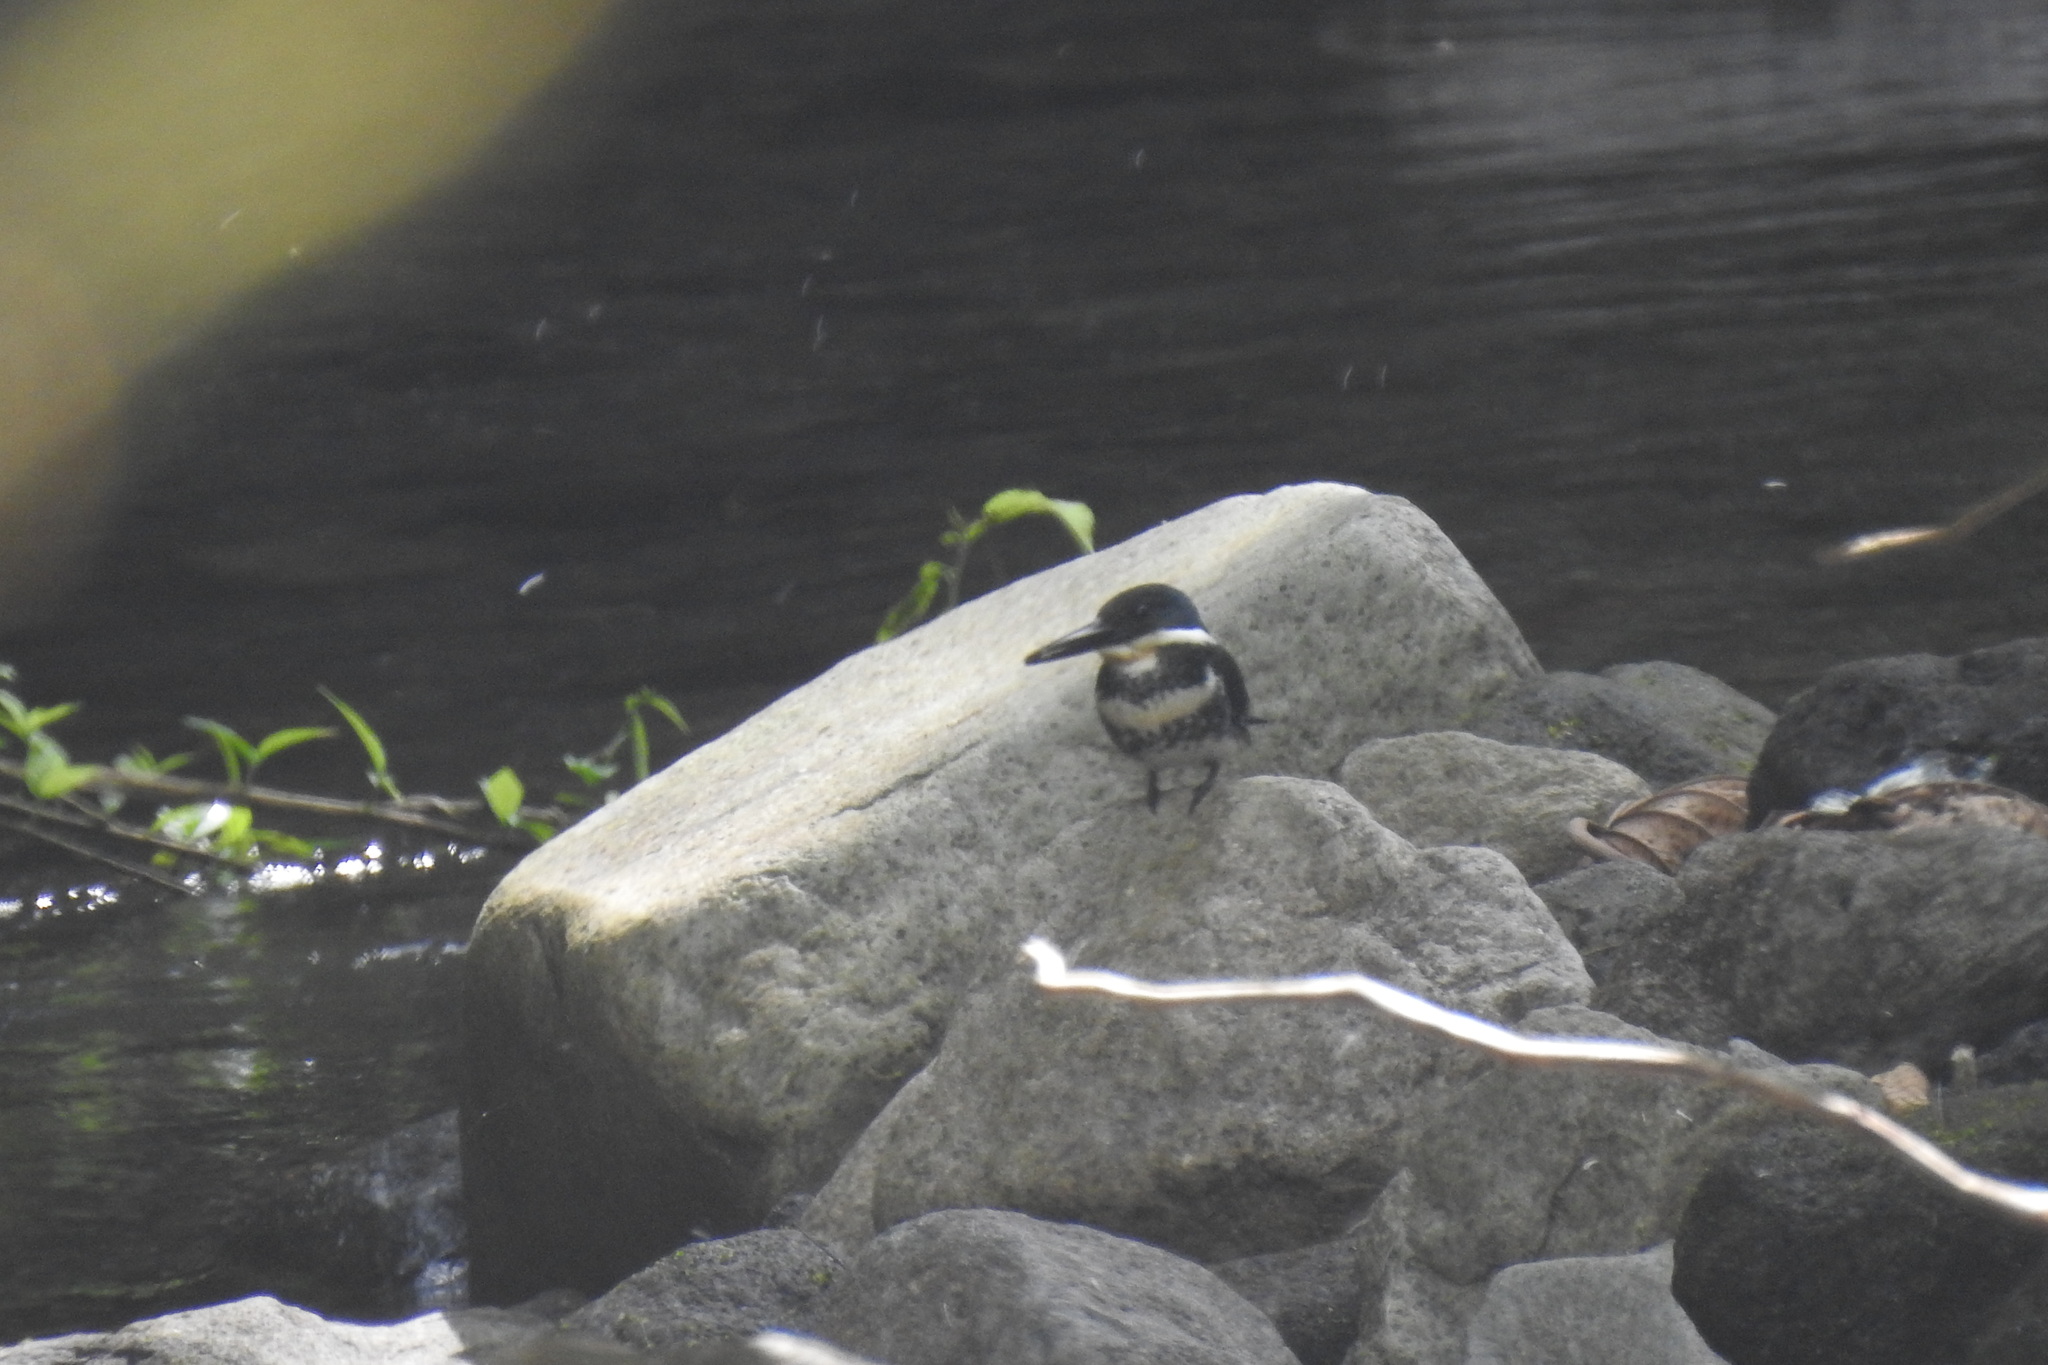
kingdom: Animalia
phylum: Chordata
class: Aves
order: Coraciiformes
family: Alcedinidae
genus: Chloroceryle
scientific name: Chloroceryle americana
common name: Green kingfisher
